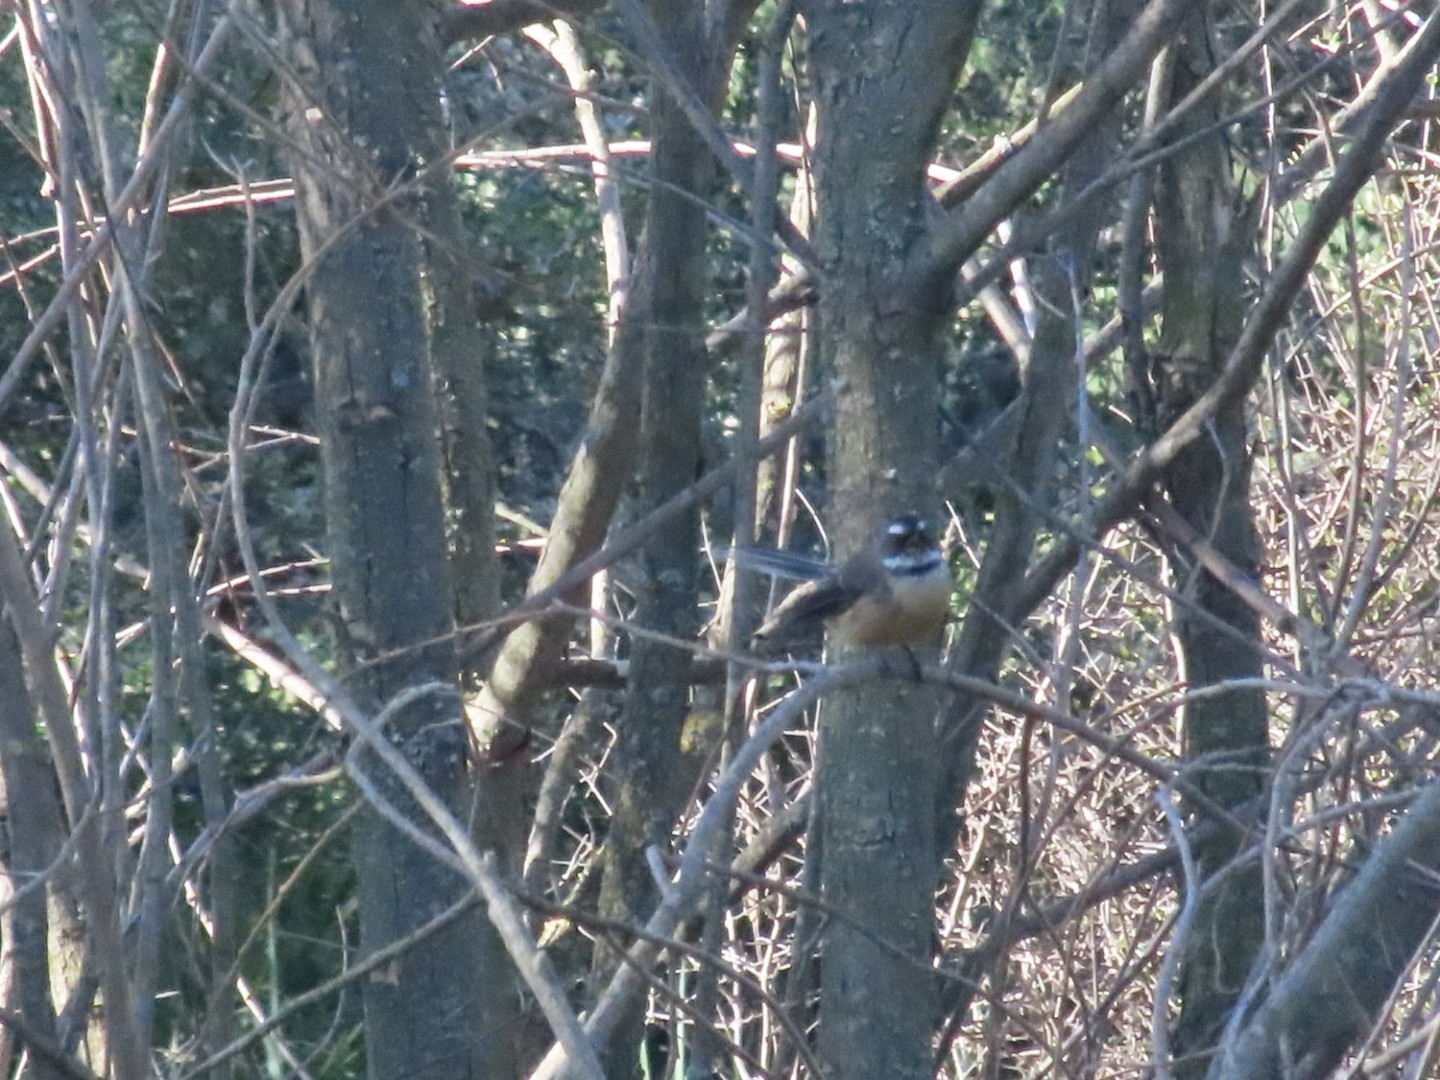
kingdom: Animalia
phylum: Chordata
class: Aves
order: Passeriformes
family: Rhipiduridae
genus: Rhipidura
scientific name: Rhipidura fuliginosa
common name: New zealand fantail
